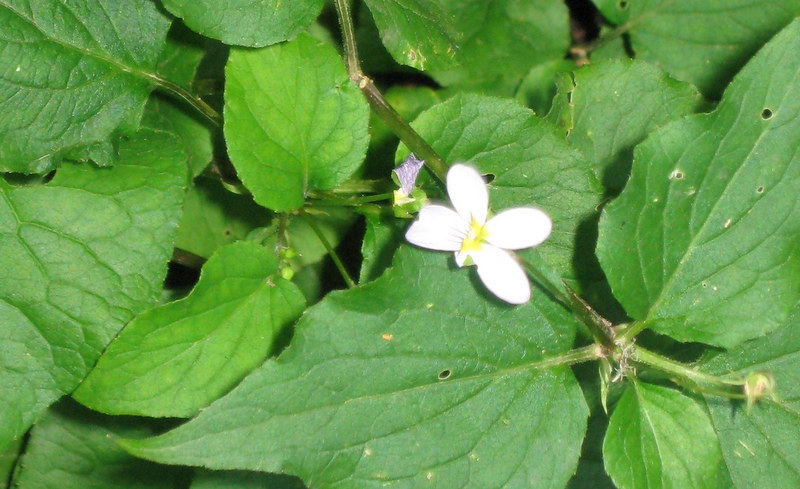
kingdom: Plantae
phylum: Tracheophyta
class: Magnoliopsida
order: Malpighiales
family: Violaceae
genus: Viola
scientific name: Viola canadensis
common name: Canada violet
